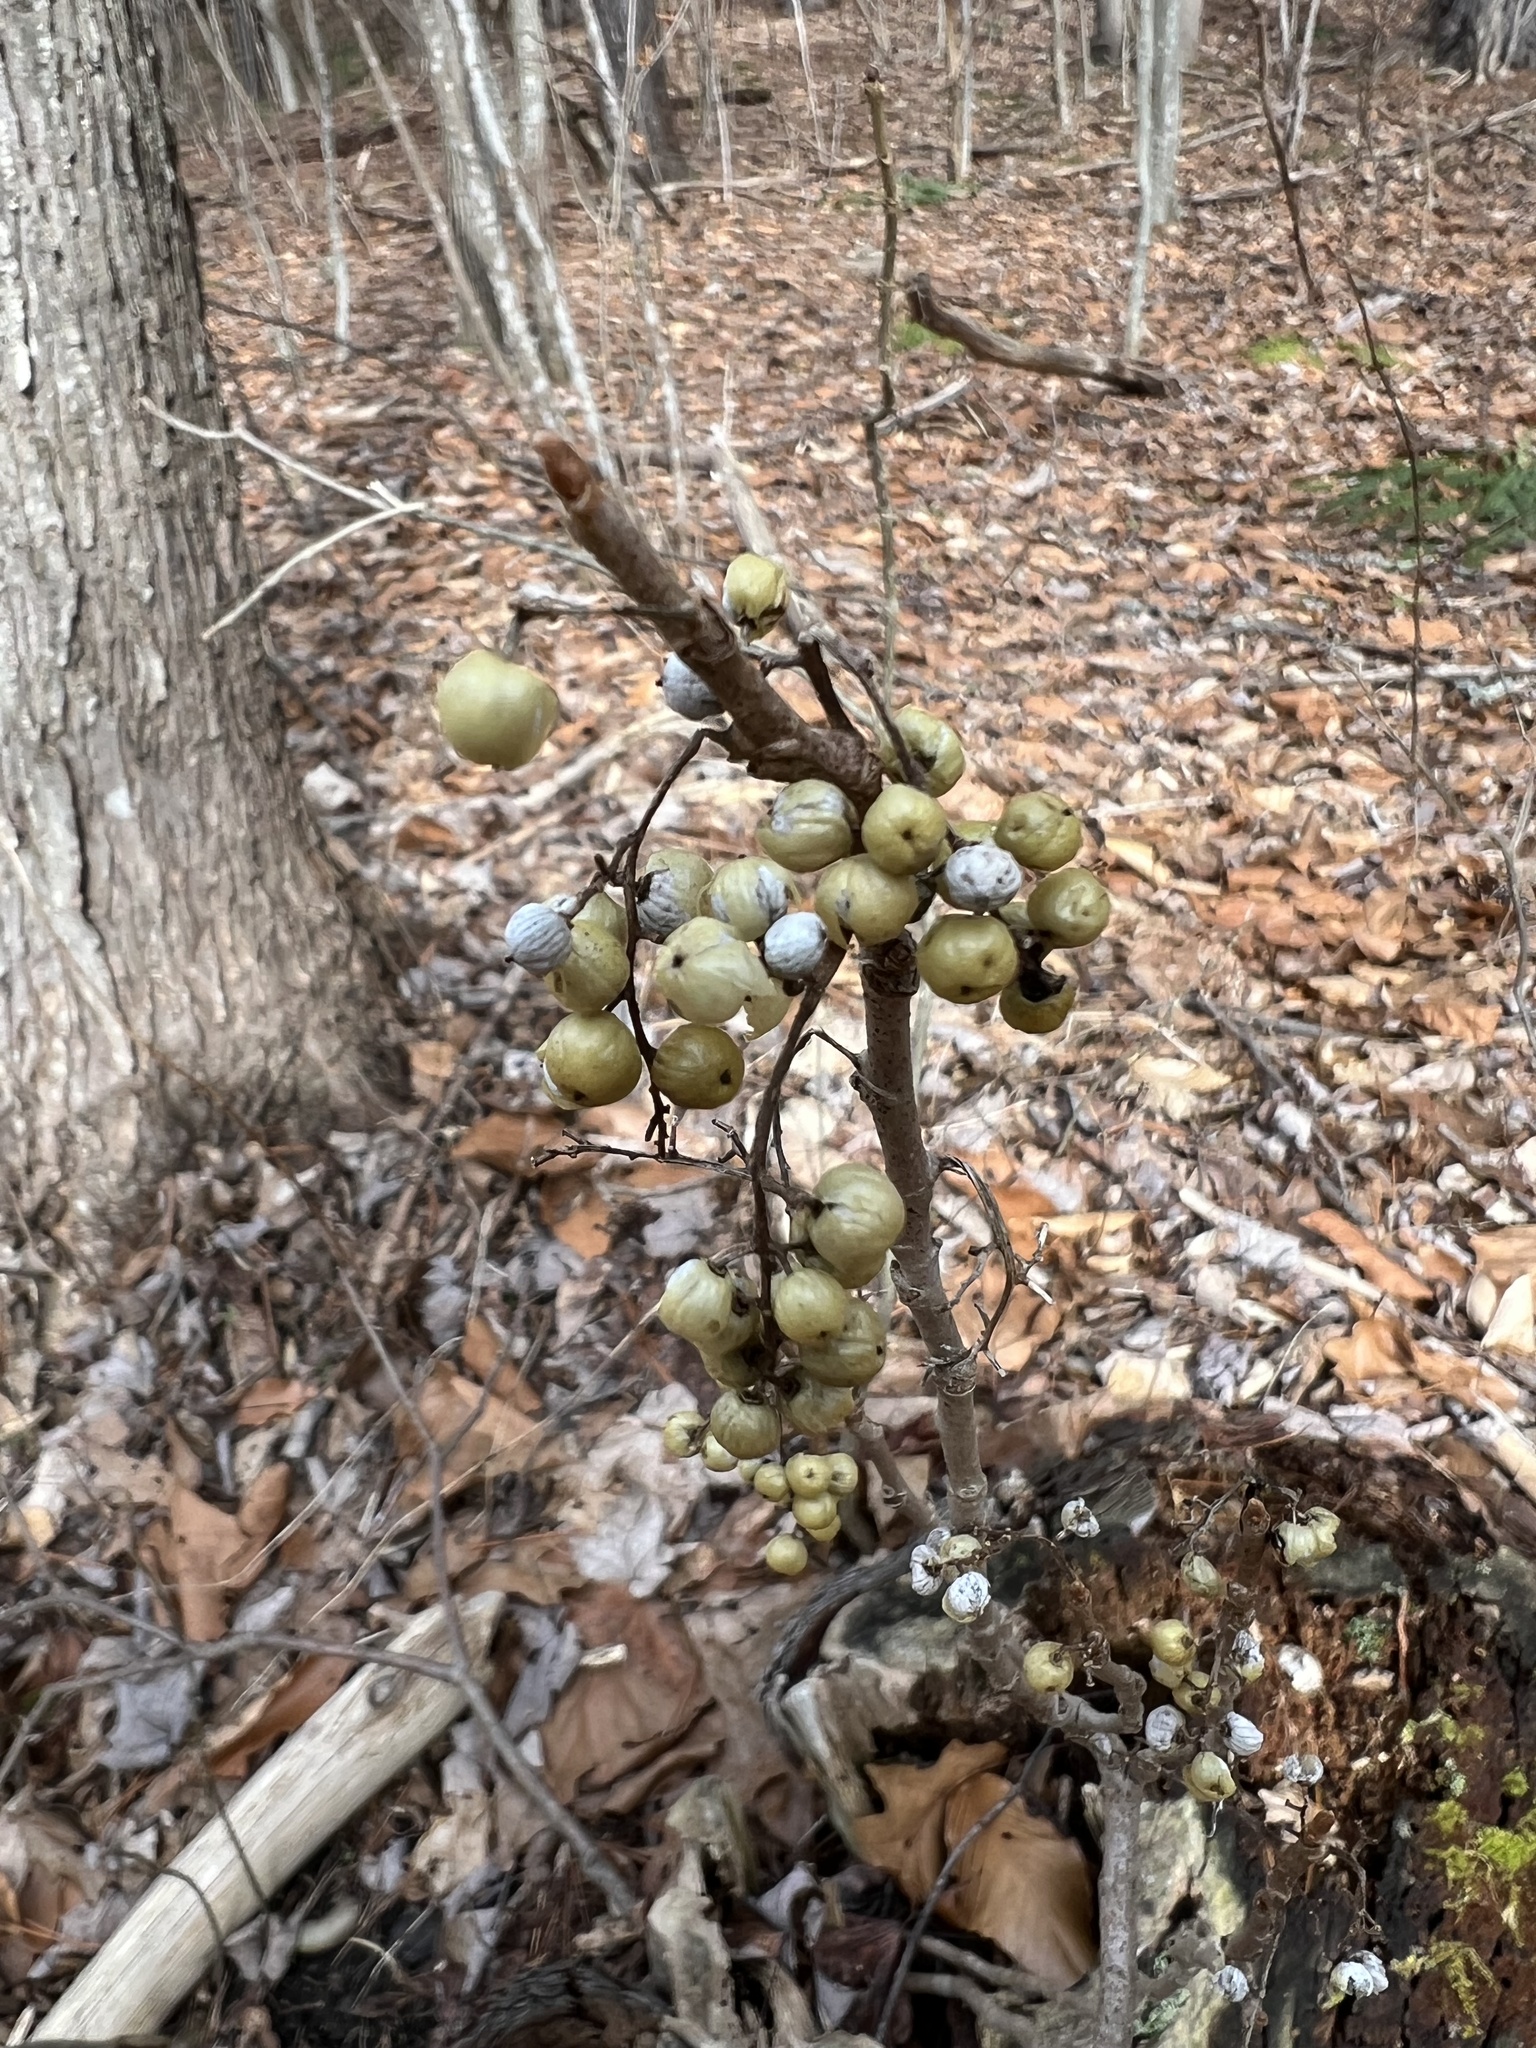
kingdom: Plantae
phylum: Tracheophyta
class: Magnoliopsida
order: Sapindales
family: Anacardiaceae
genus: Toxicodendron
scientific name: Toxicodendron radicans
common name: Poison ivy
